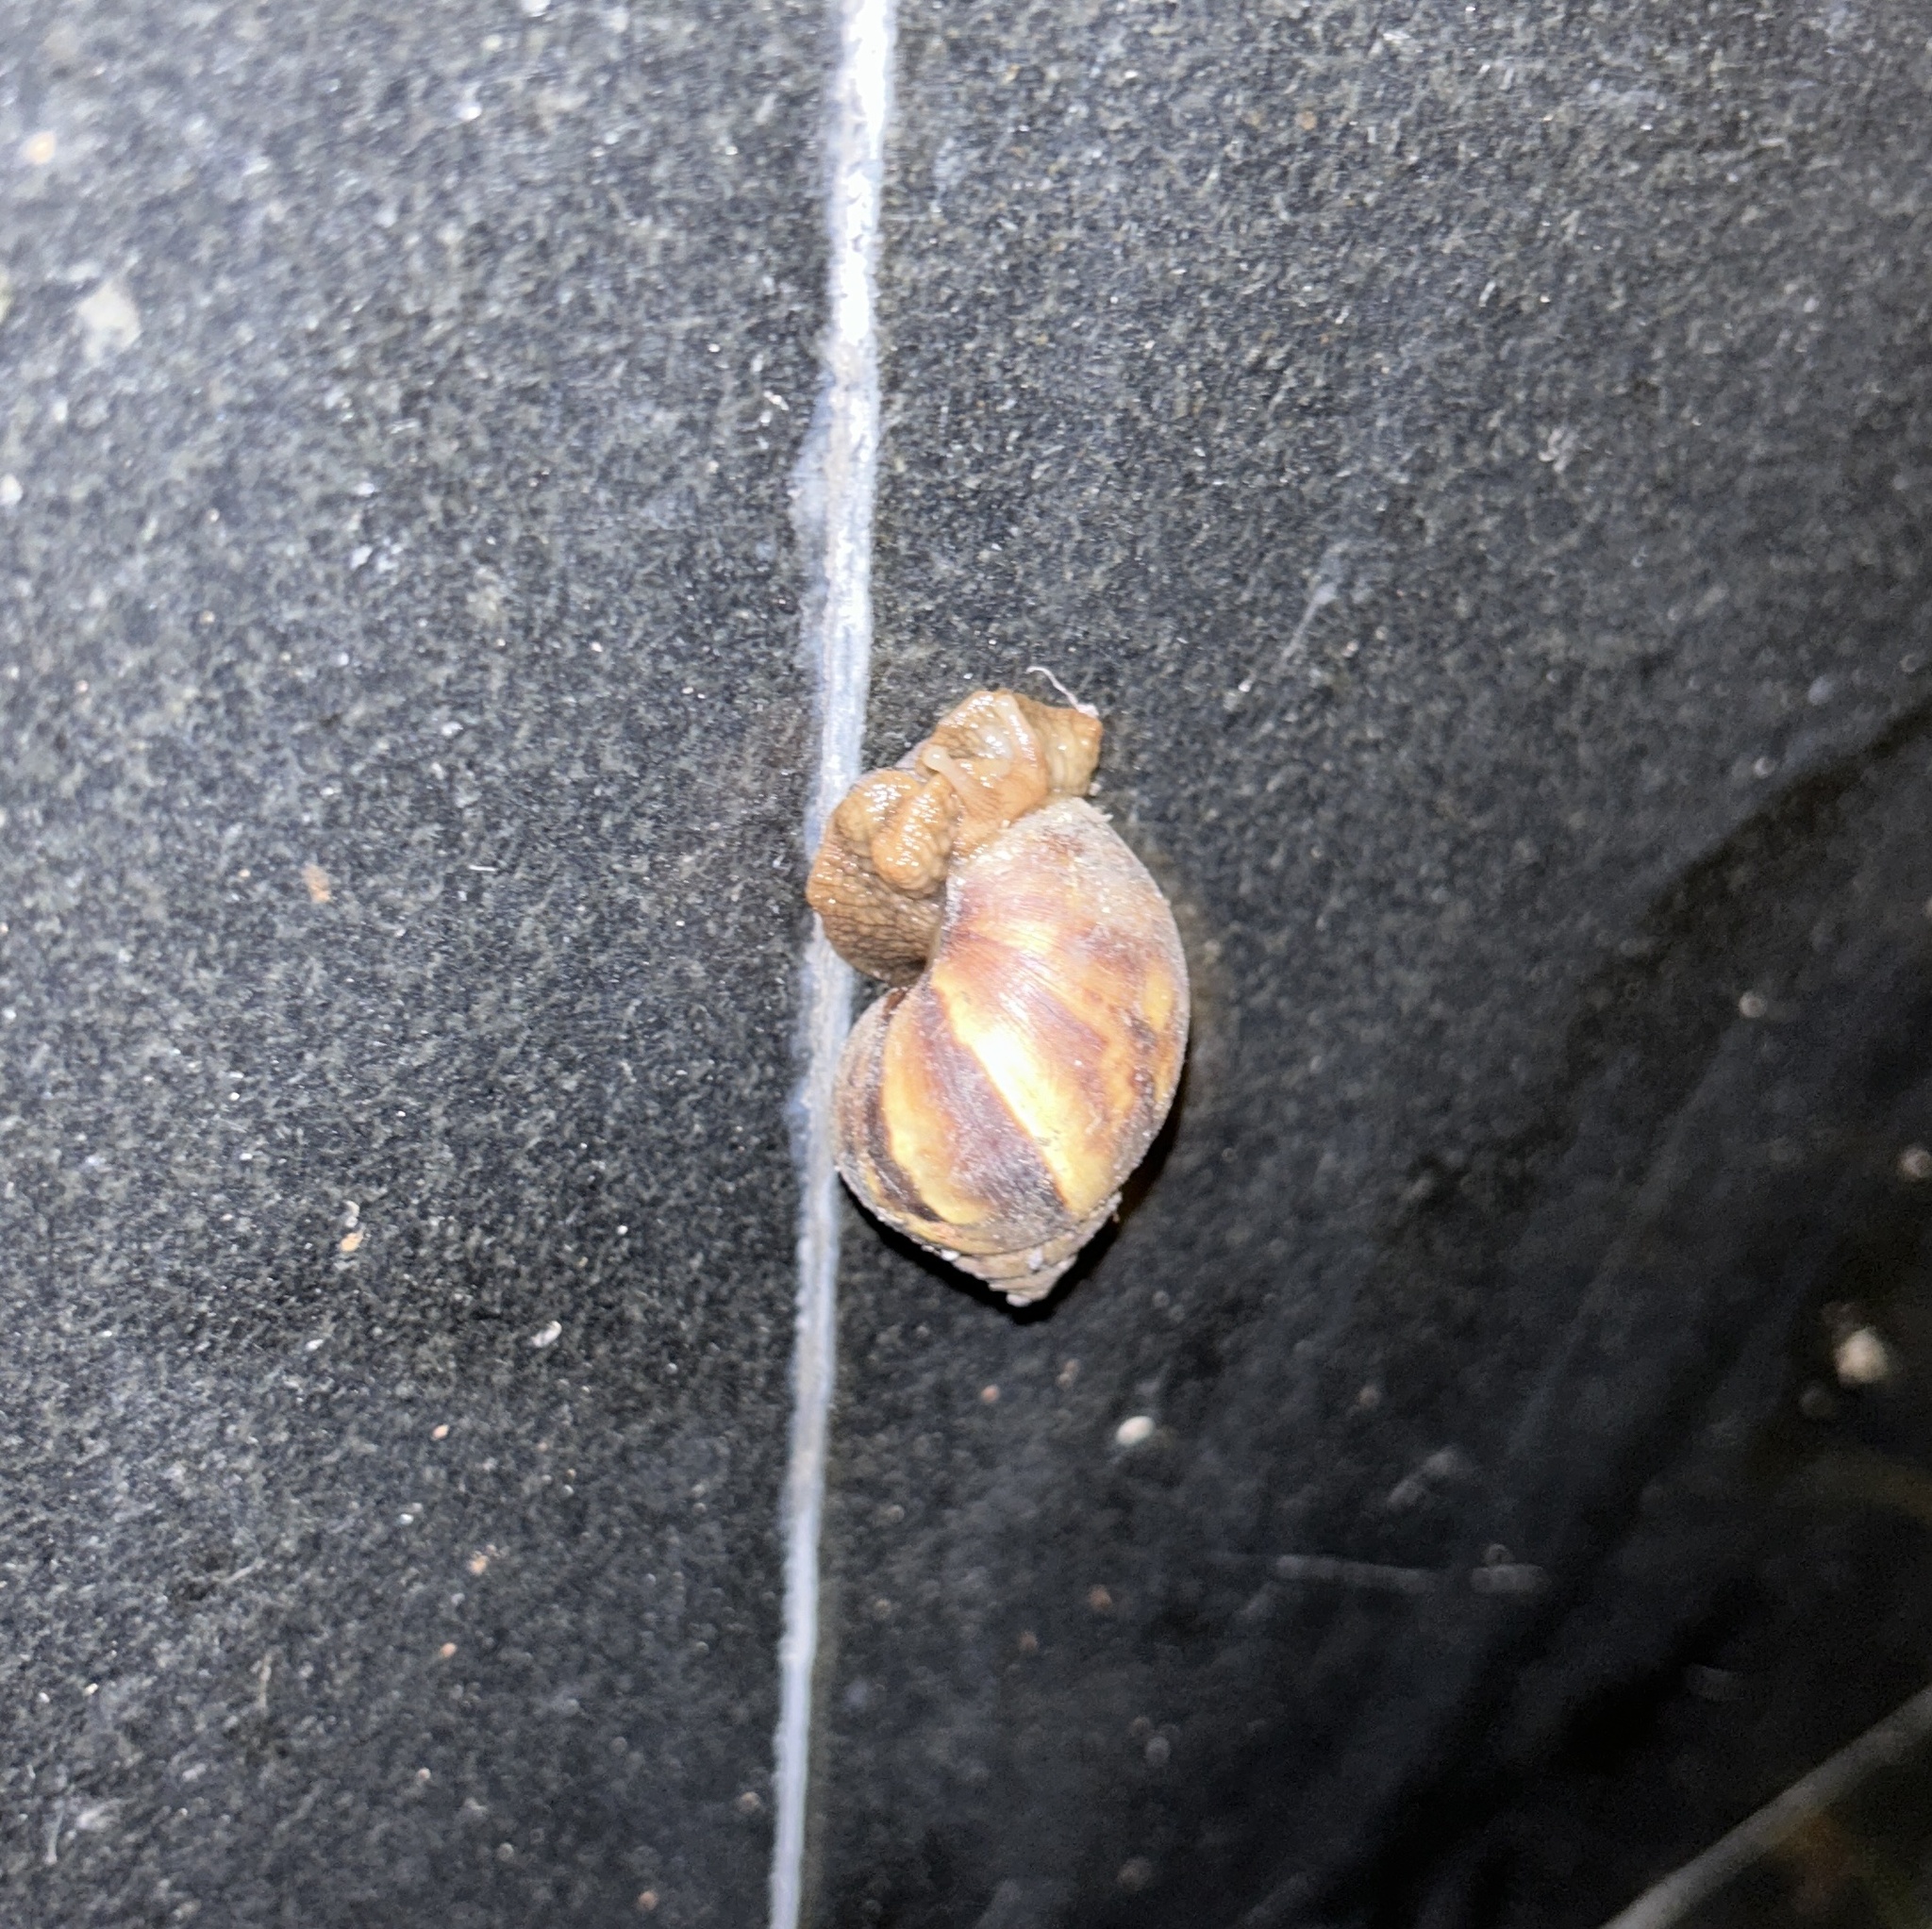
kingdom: Animalia
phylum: Mollusca
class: Gastropoda
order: Stylommatophora
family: Achatinidae
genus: Lissachatina
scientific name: Lissachatina fulica
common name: Giant african snail
